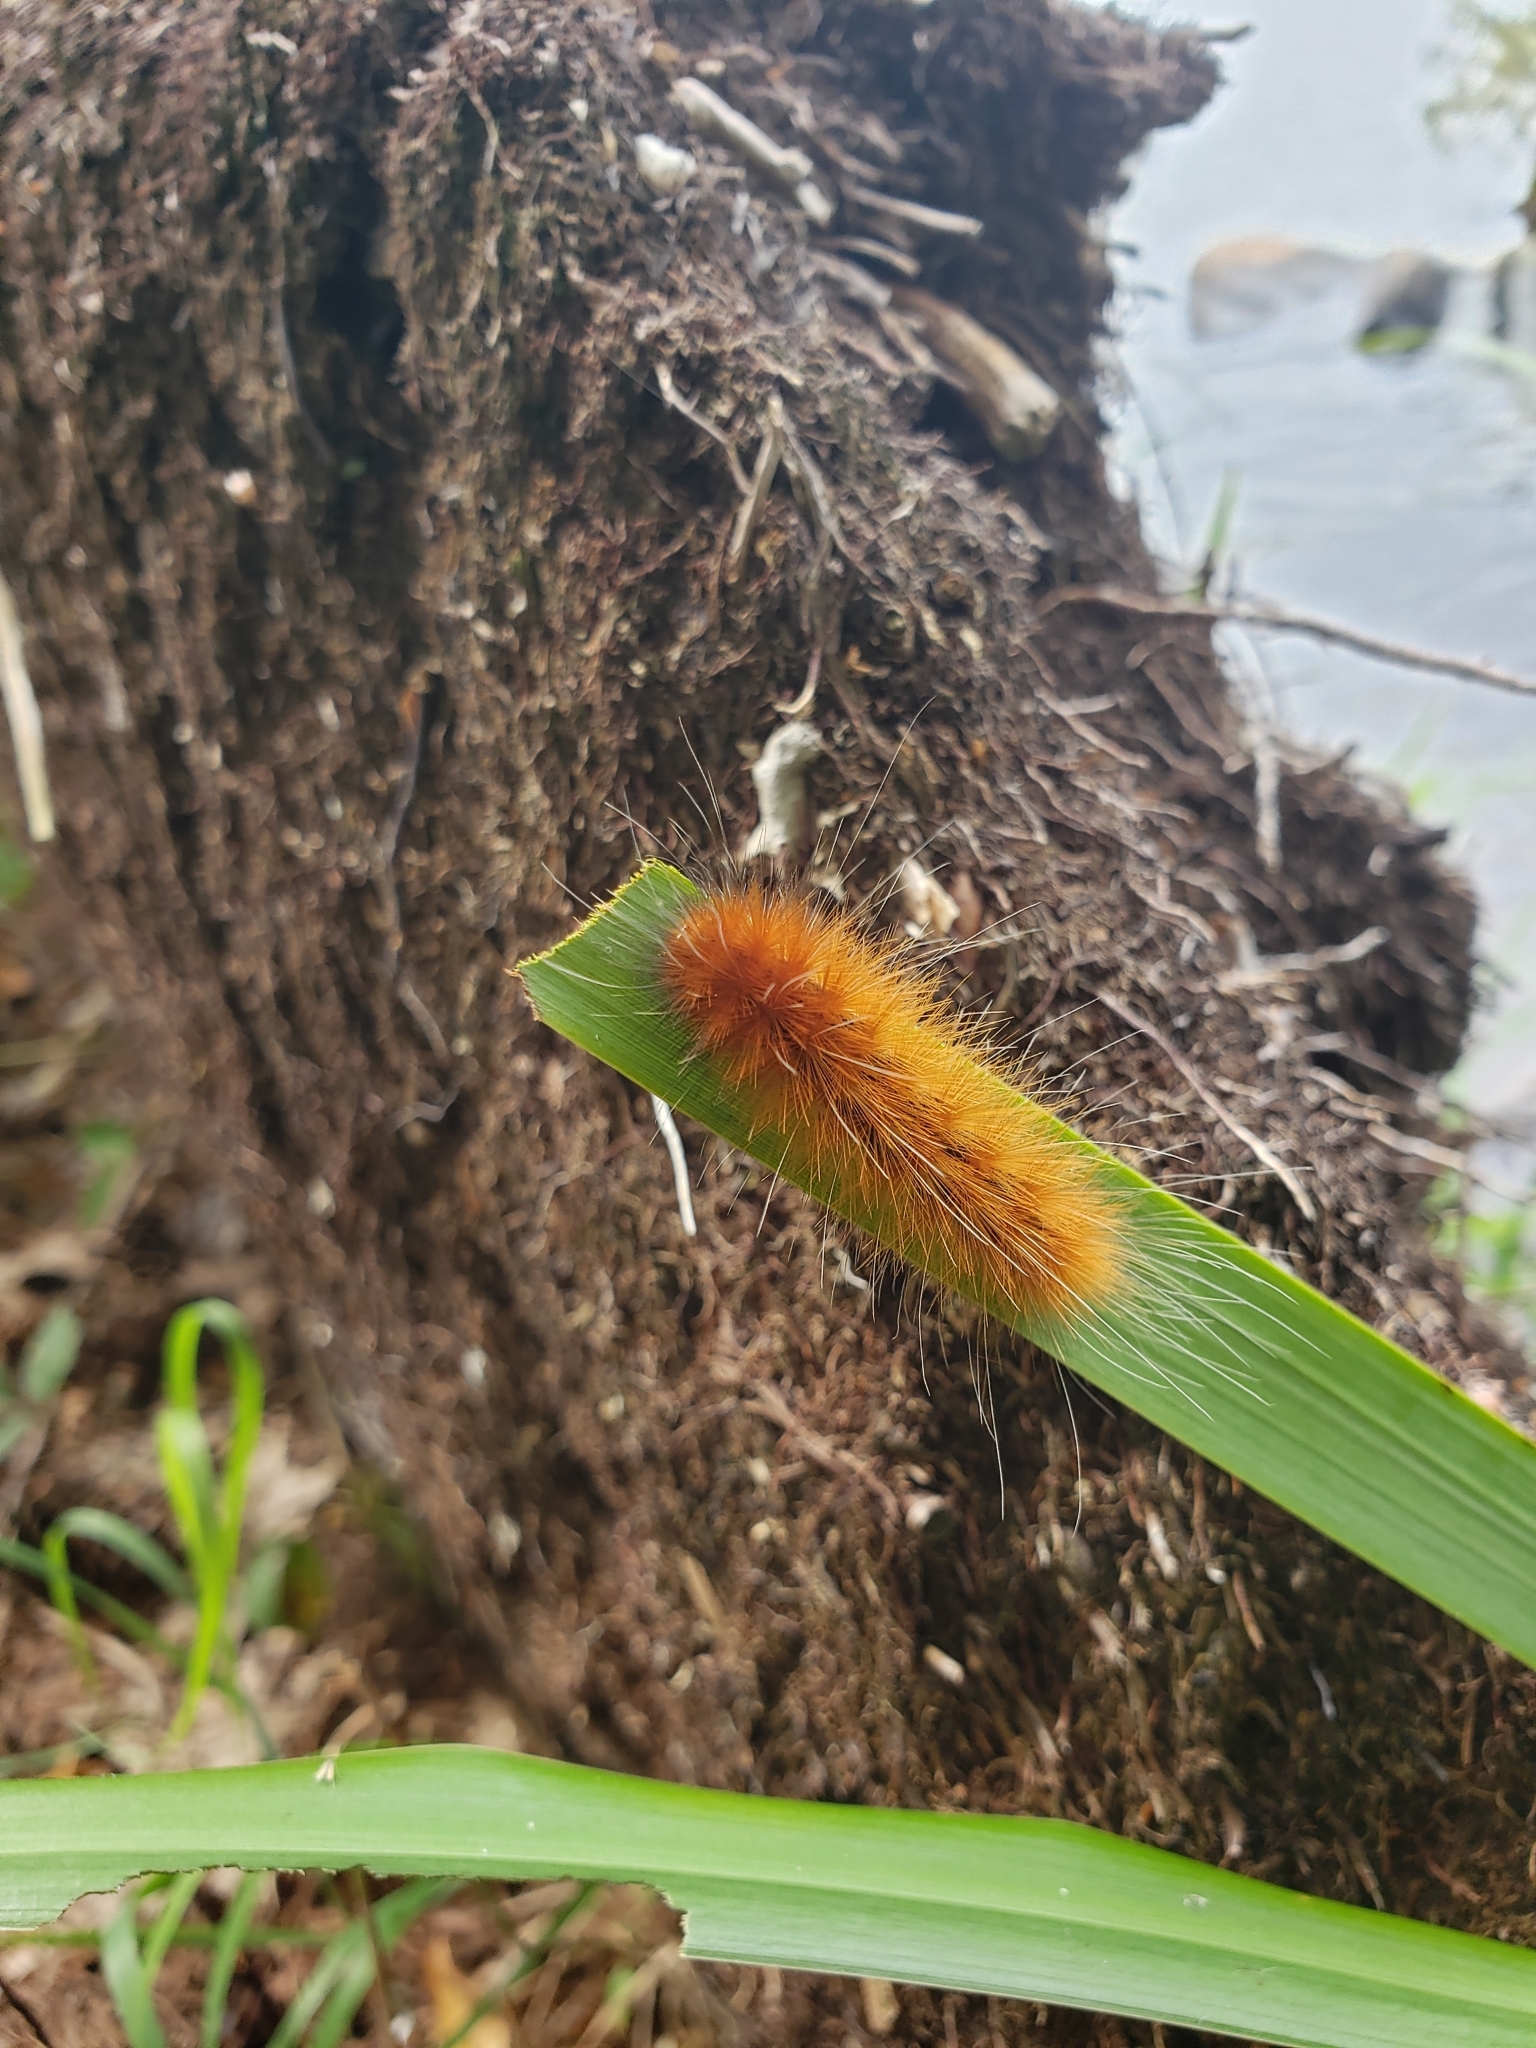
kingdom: Animalia
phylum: Arthropoda
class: Insecta
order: Lepidoptera
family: Erebidae
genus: Spilosoma
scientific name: Spilosoma virginica
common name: Virginia tiger moth
